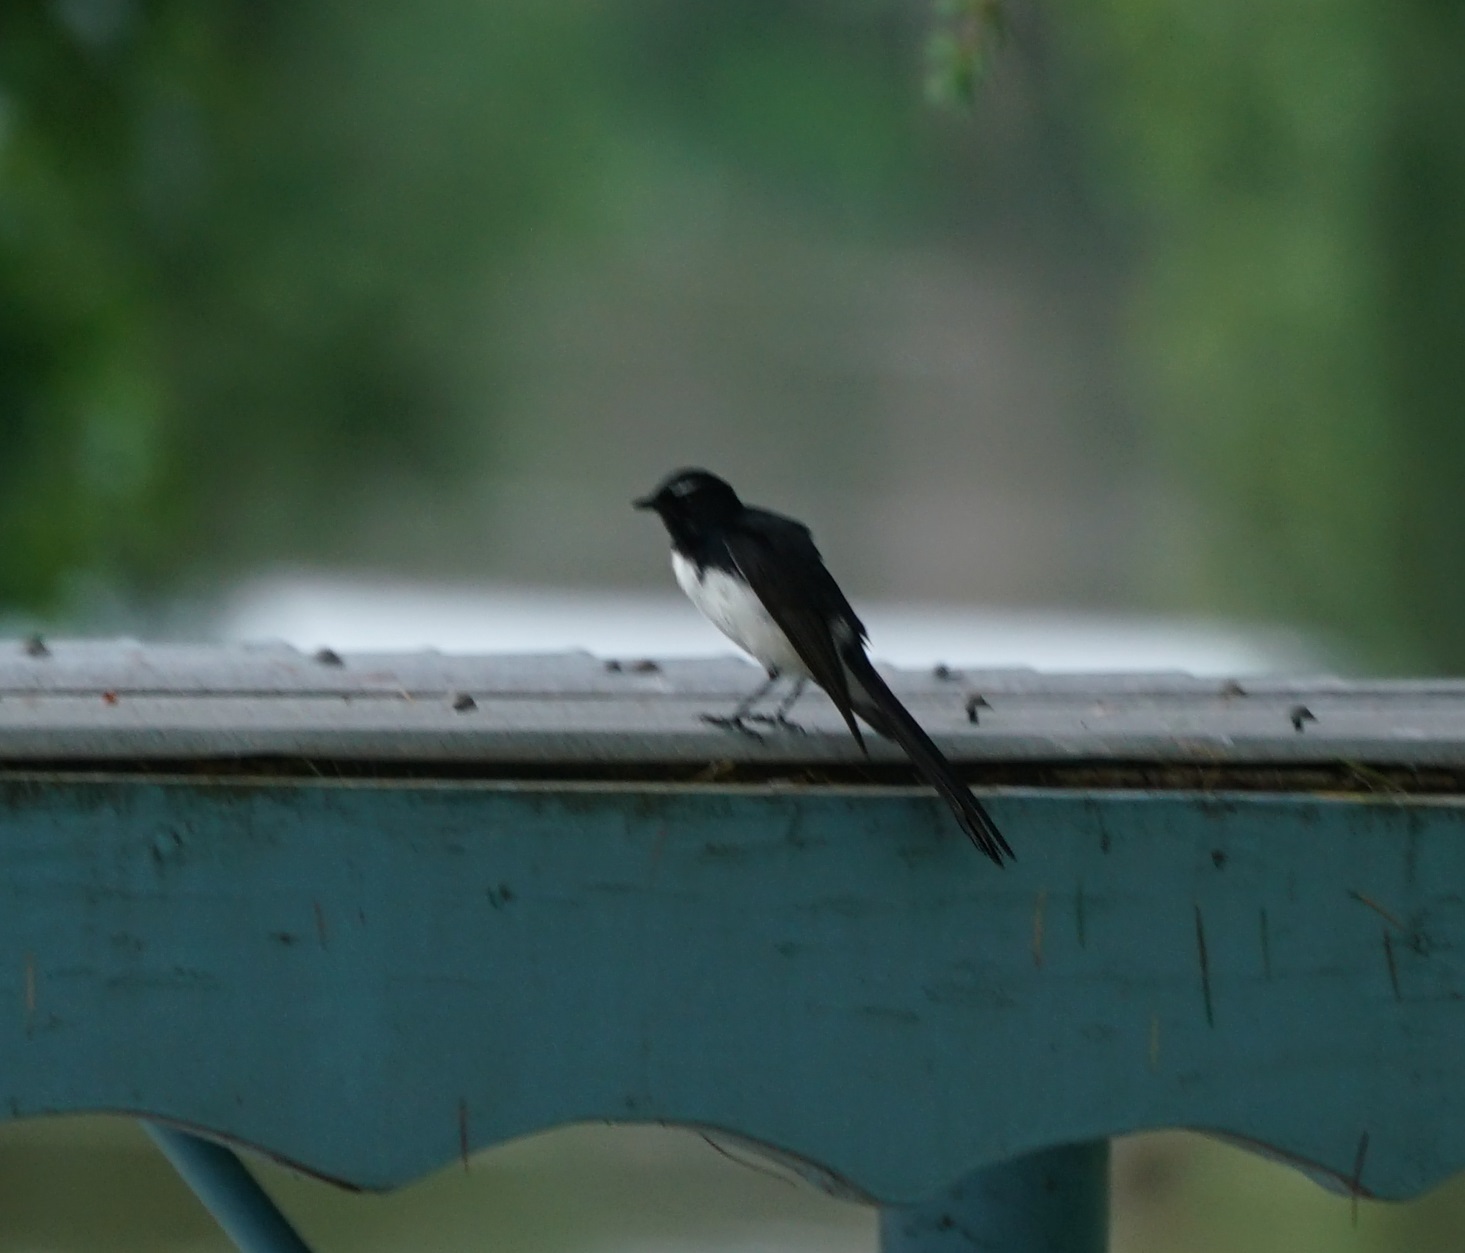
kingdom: Animalia
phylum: Chordata
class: Aves
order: Passeriformes
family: Rhipiduridae
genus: Rhipidura
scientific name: Rhipidura leucophrys
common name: Willie wagtail
